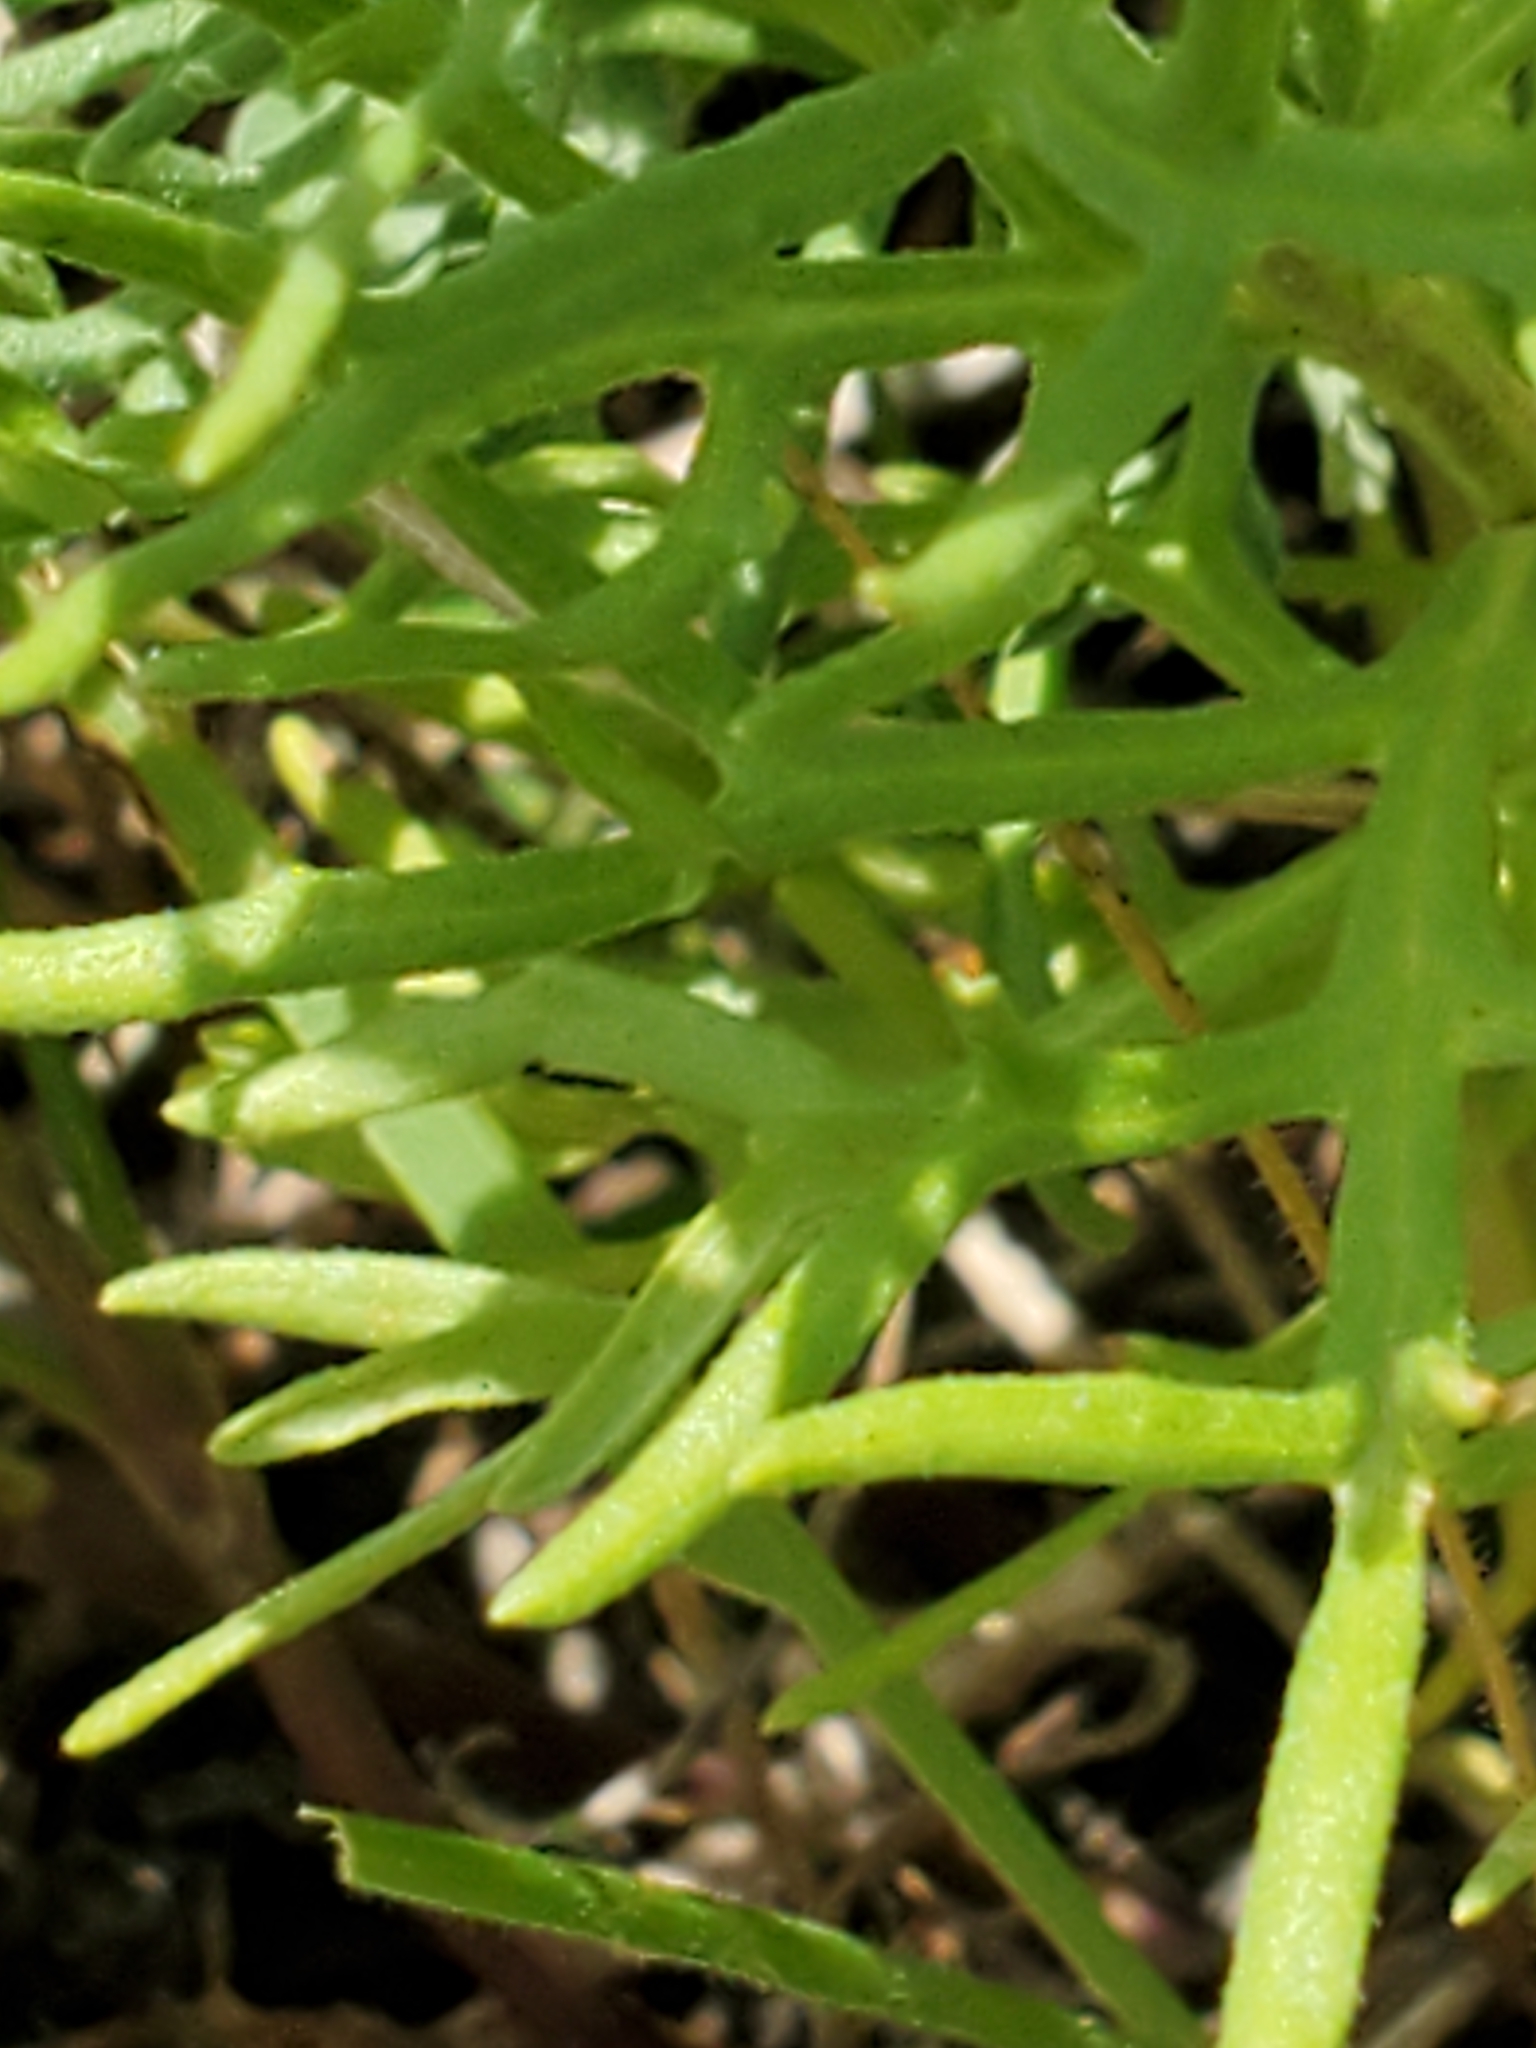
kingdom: Plantae
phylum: Tracheophyta
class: Magnoliopsida
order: Lamiales
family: Lamiaceae
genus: Teucrium
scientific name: Teucrium laciniatum
